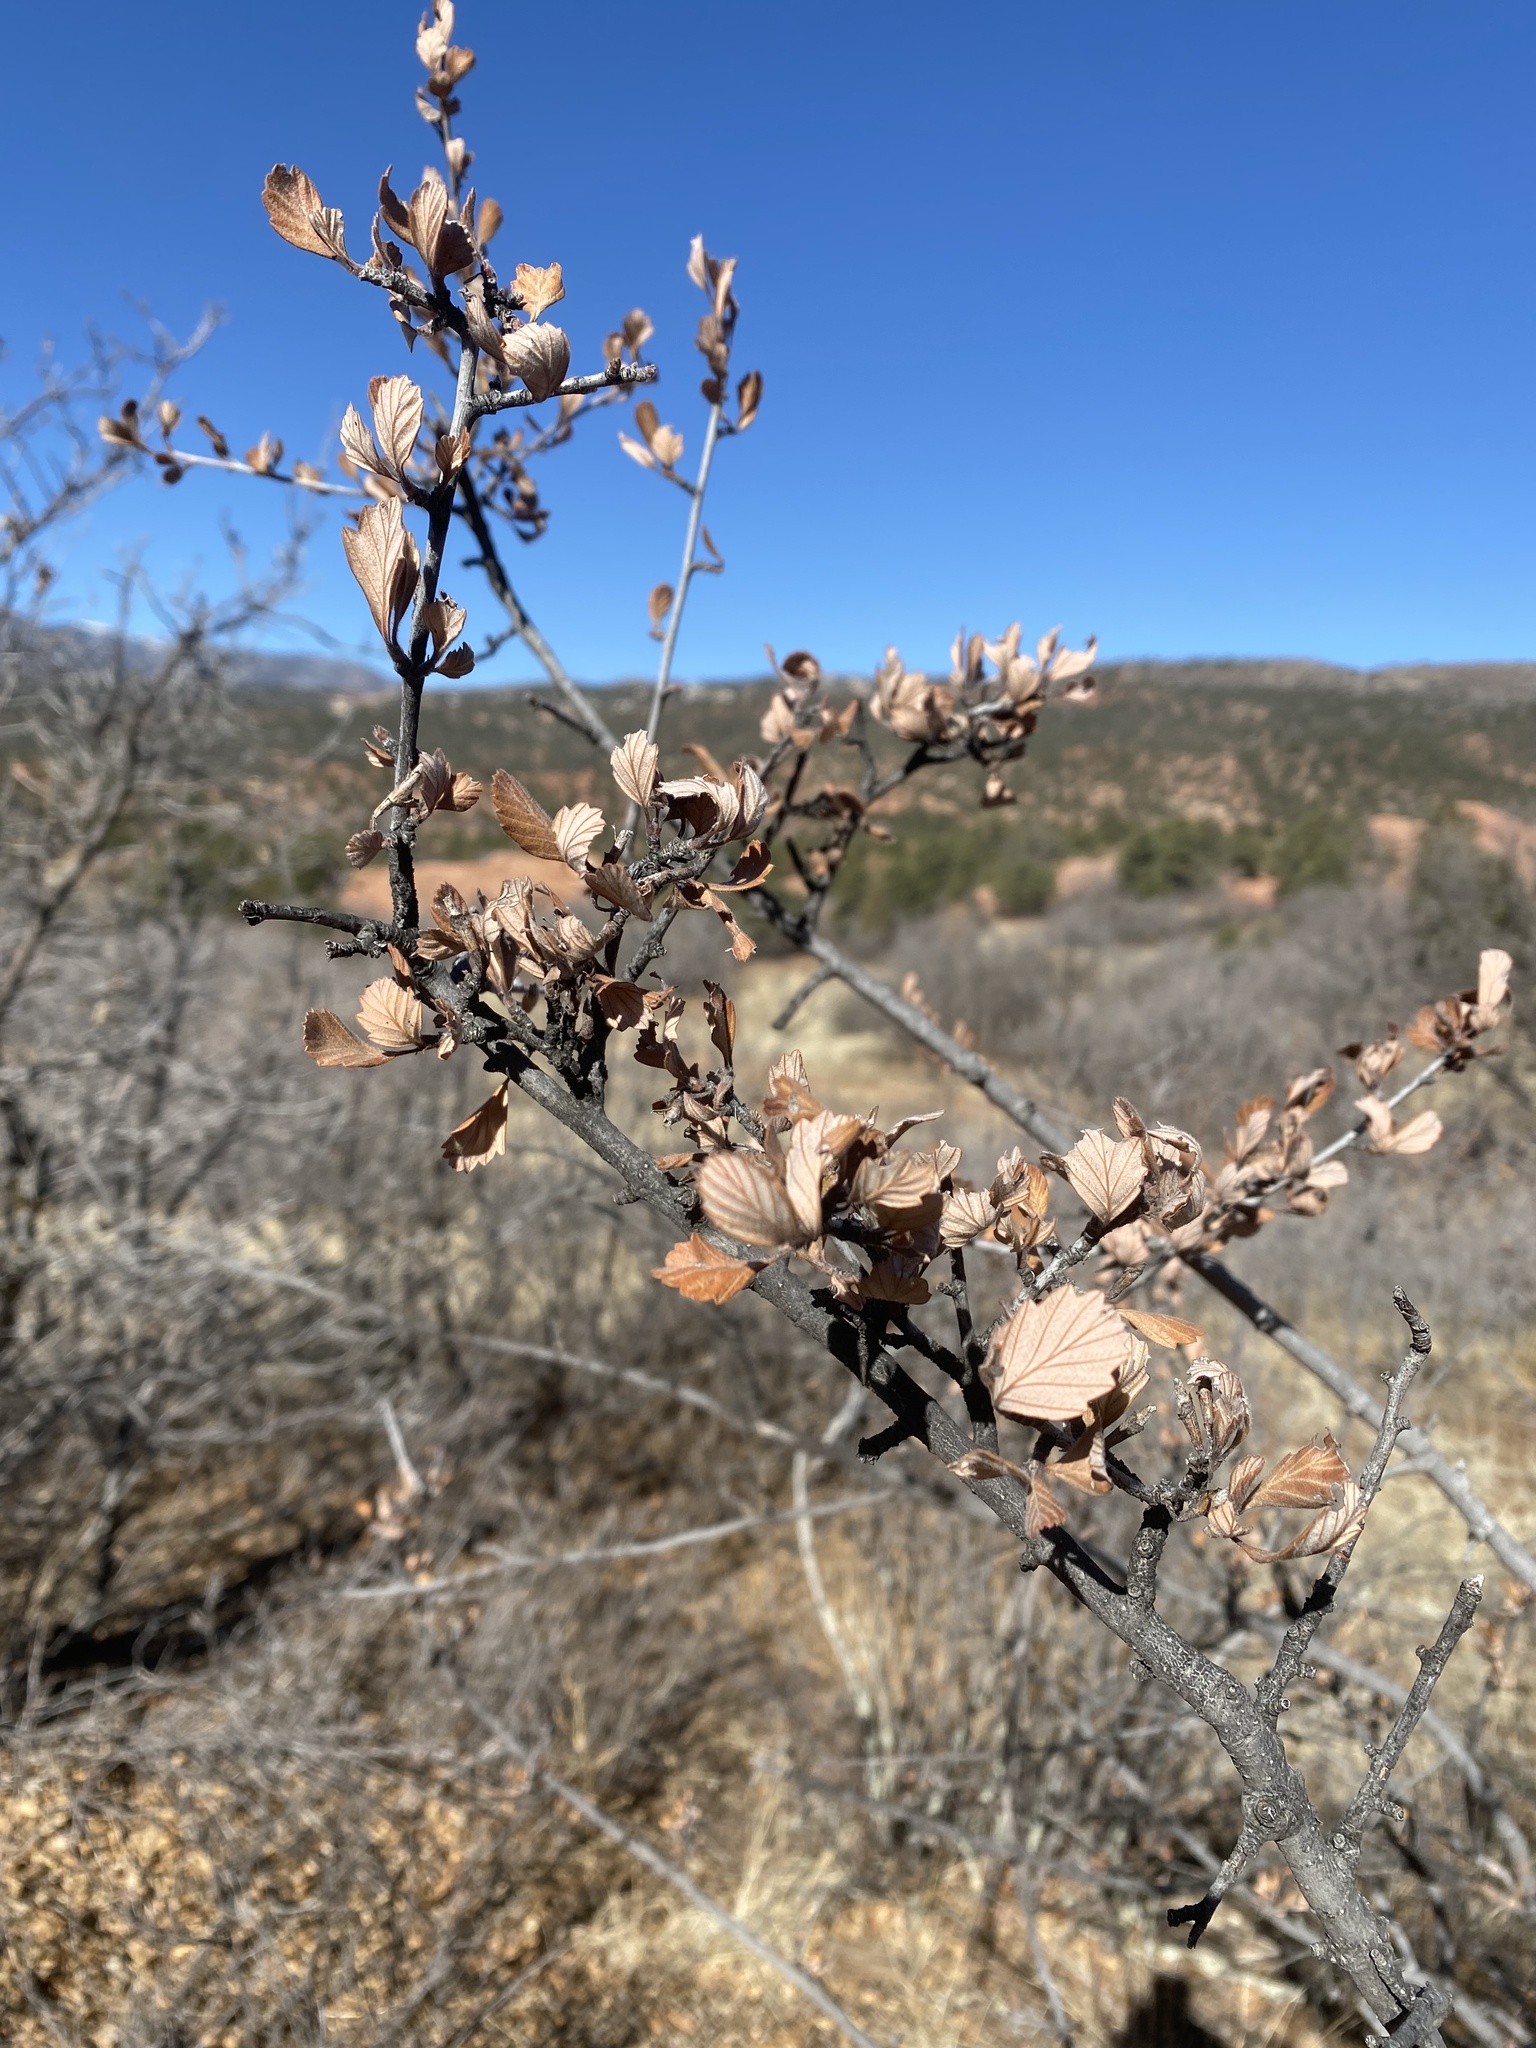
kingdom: Plantae
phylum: Tracheophyta
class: Magnoliopsida
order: Rosales
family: Rosaceae
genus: Cercocarpus
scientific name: Cercocarpus montanus
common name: Alder-leaf cercocarpus
